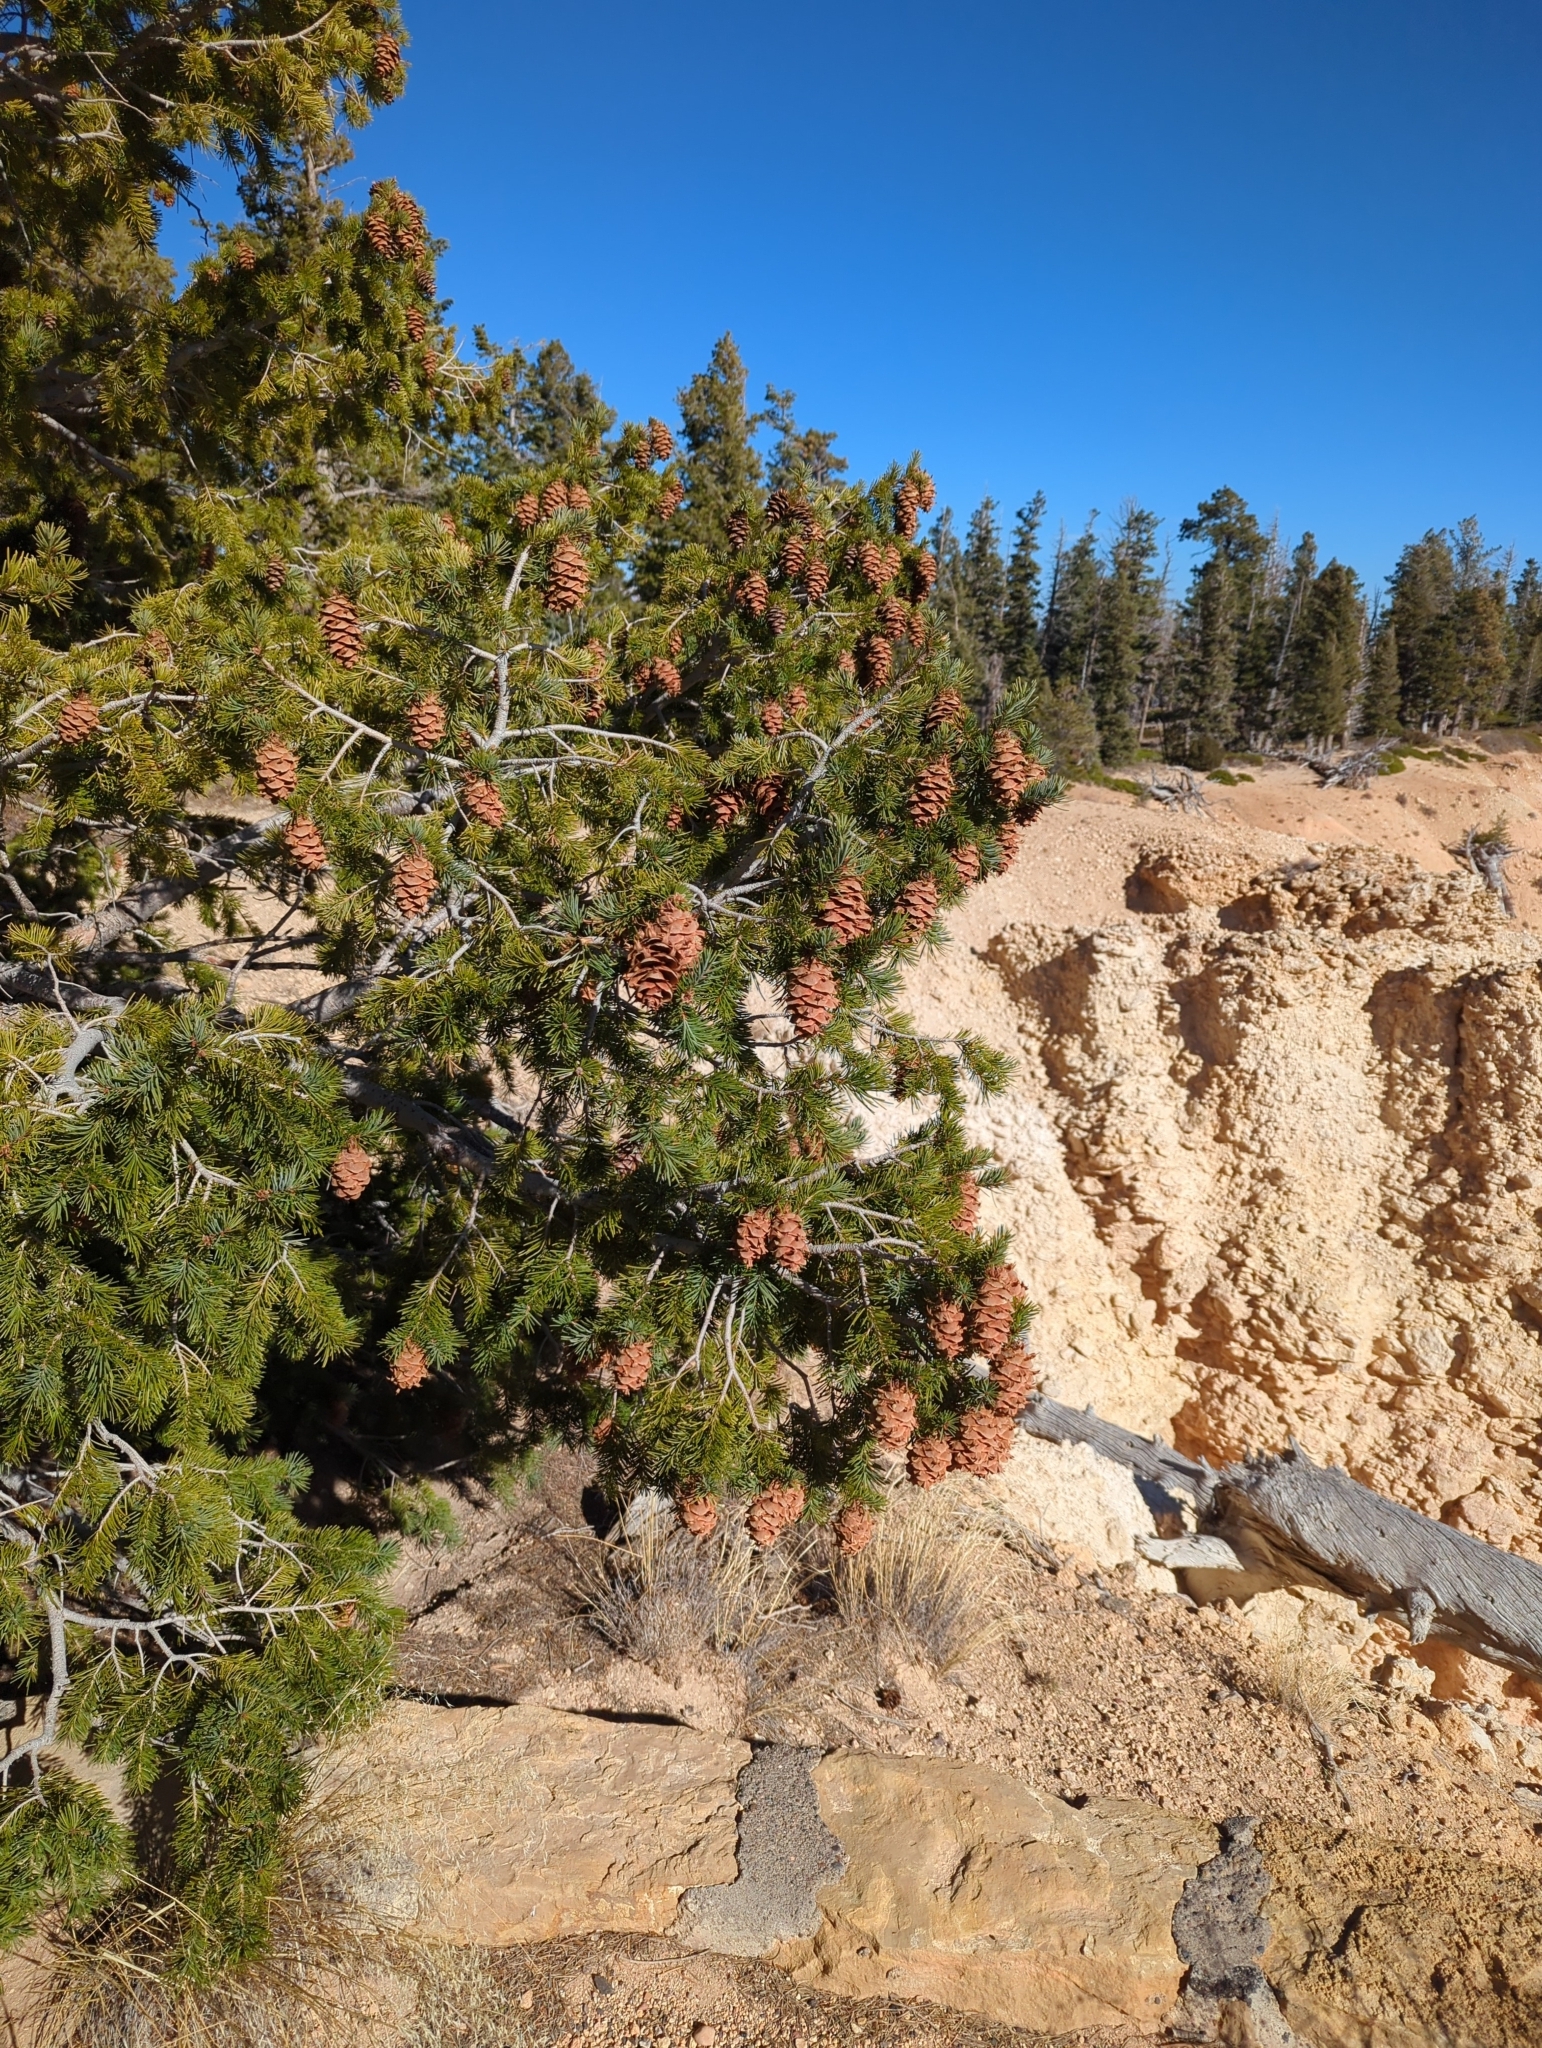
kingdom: Plantae
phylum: Tracheophyta
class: Pinopsida
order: Pinales
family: Pinaceae
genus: Pseudotsuga
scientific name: Pseudotsuga menziesii
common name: Douglas fir
